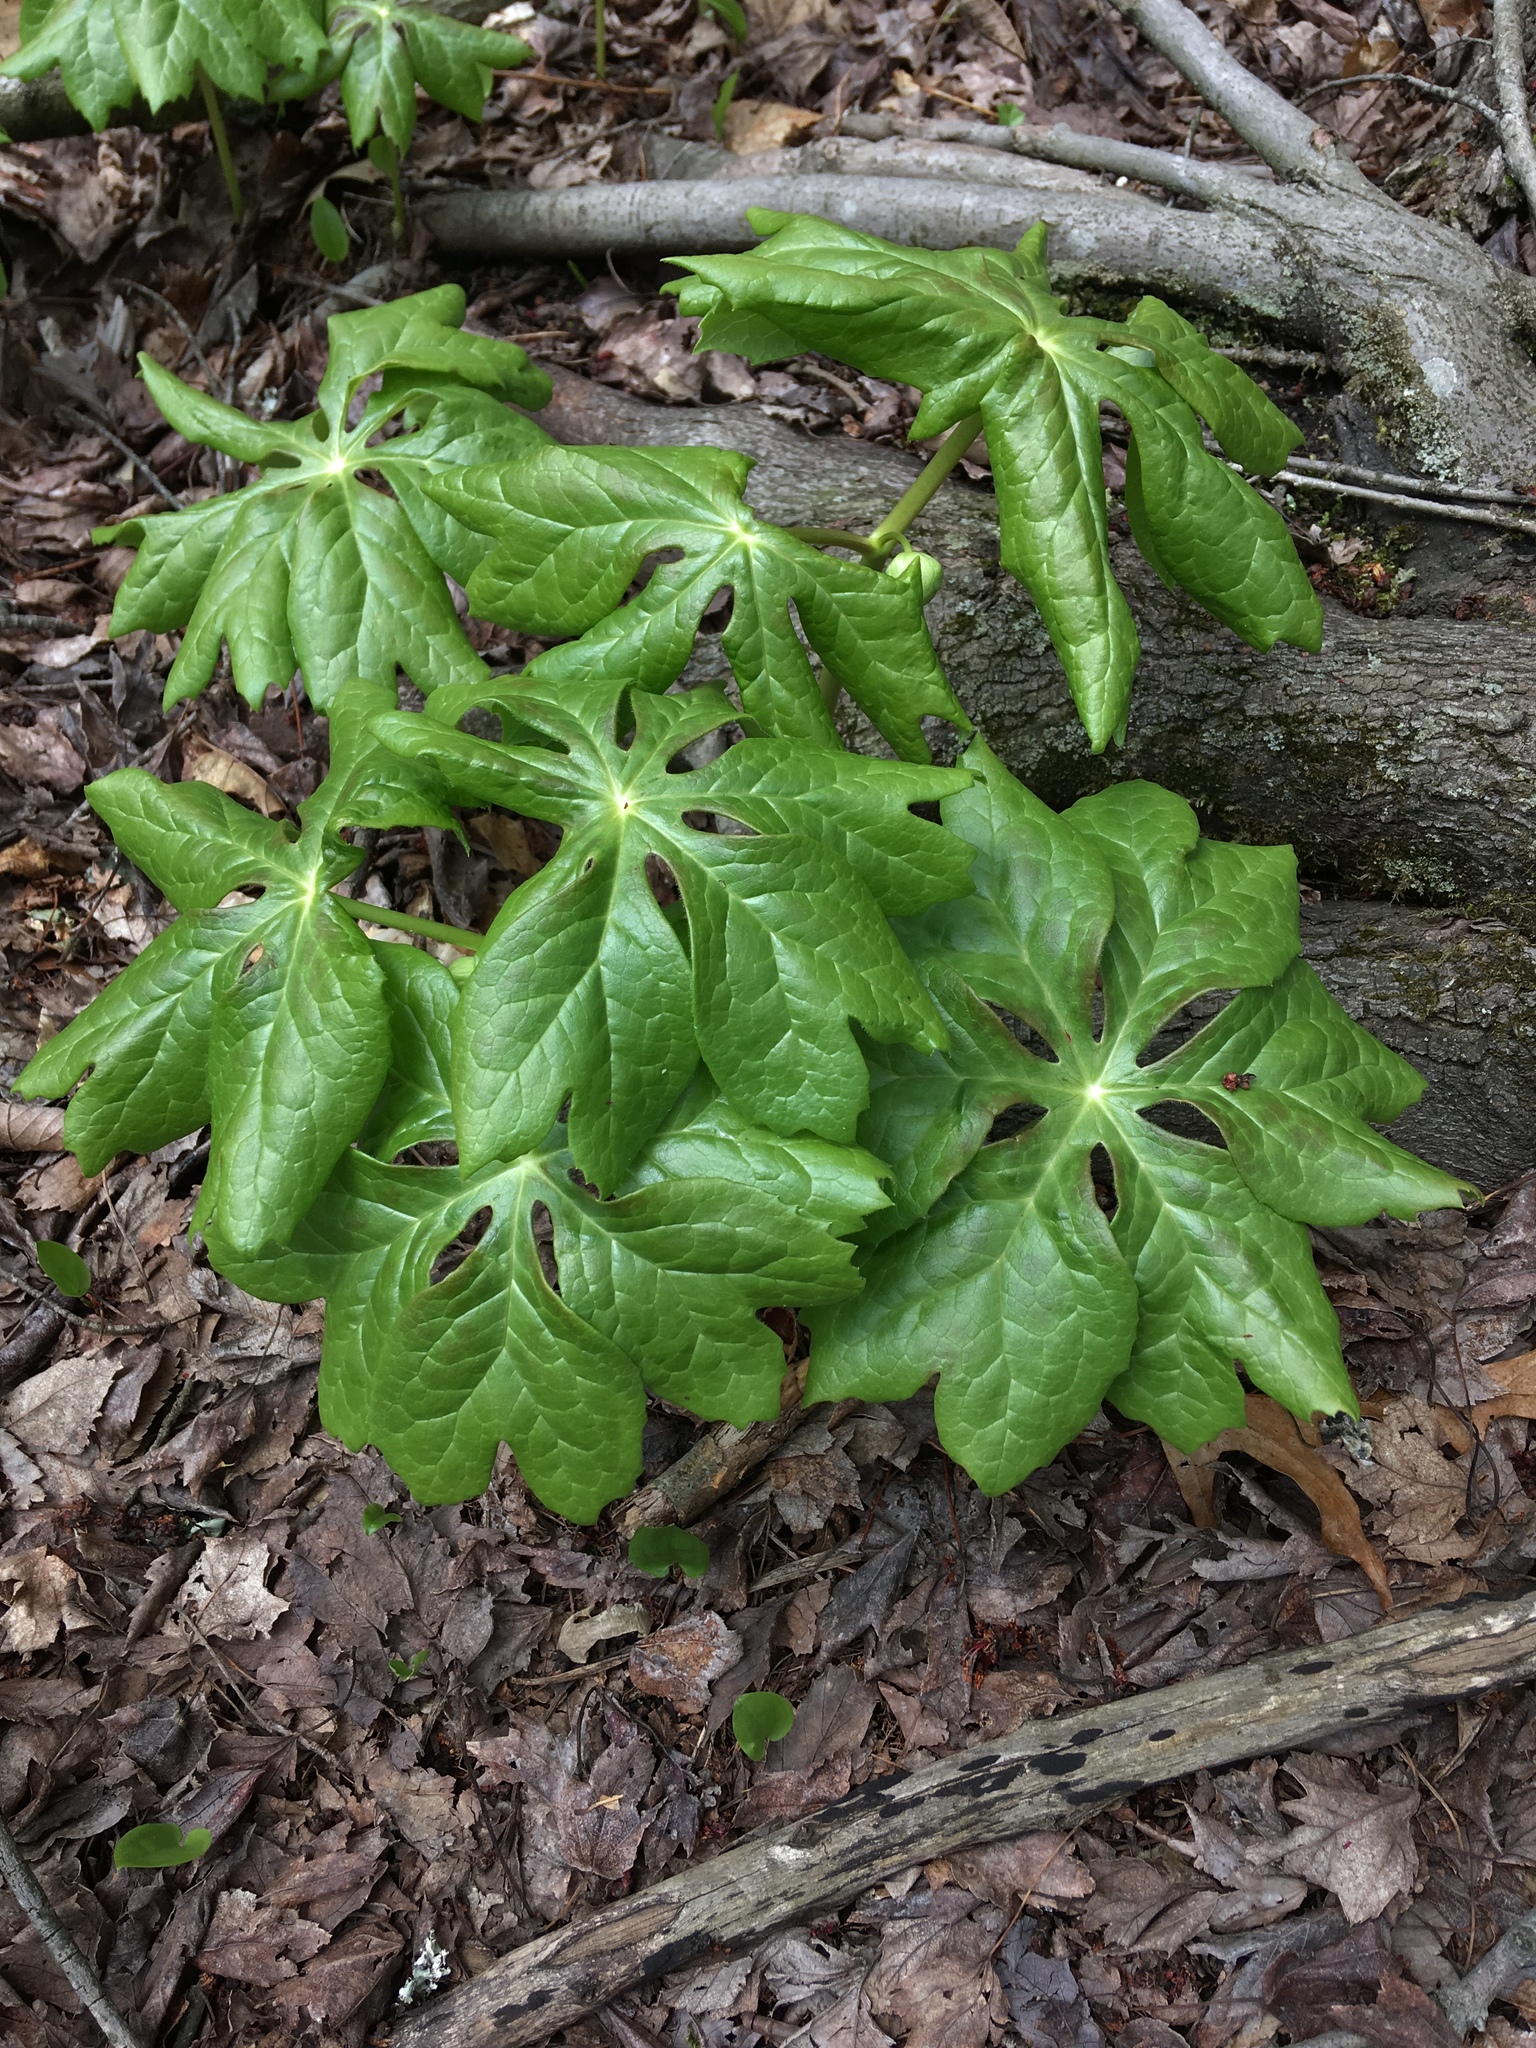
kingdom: Plantae
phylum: Tracheophyta
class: Magnoliopsida
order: Ranunculales
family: Berberidaceae
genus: Podophyllum
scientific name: Podophyllum peltatum
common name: Wild mandrake
